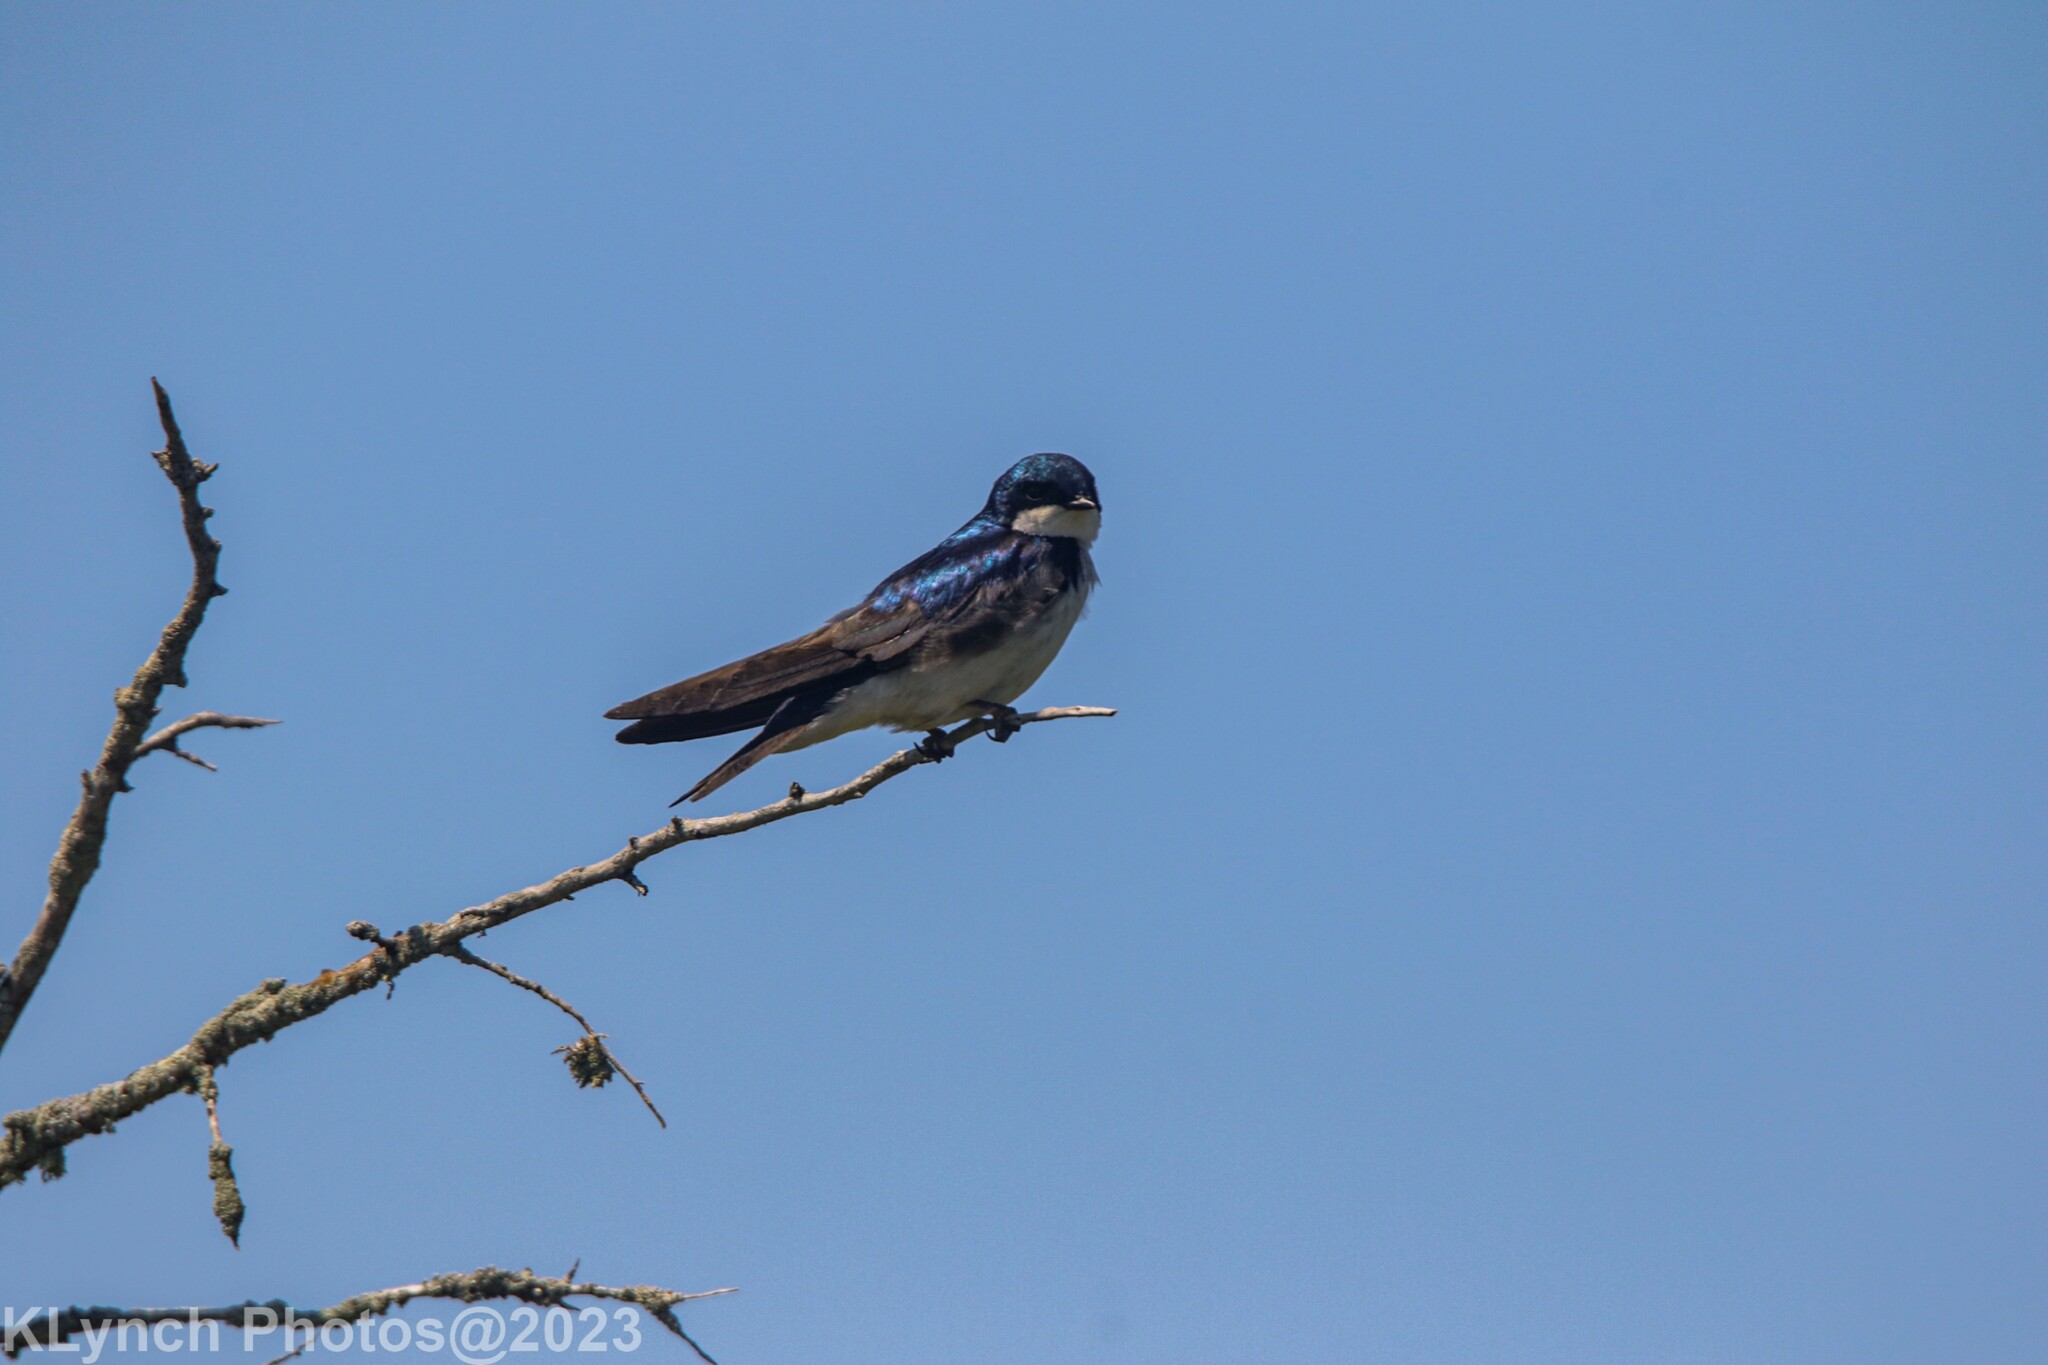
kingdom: Animalia
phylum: Chordata
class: Aves
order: Passeriformes
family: Hirundinidae
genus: Tachycineta
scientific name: Tachycineta bicolor
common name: Tree swallow
